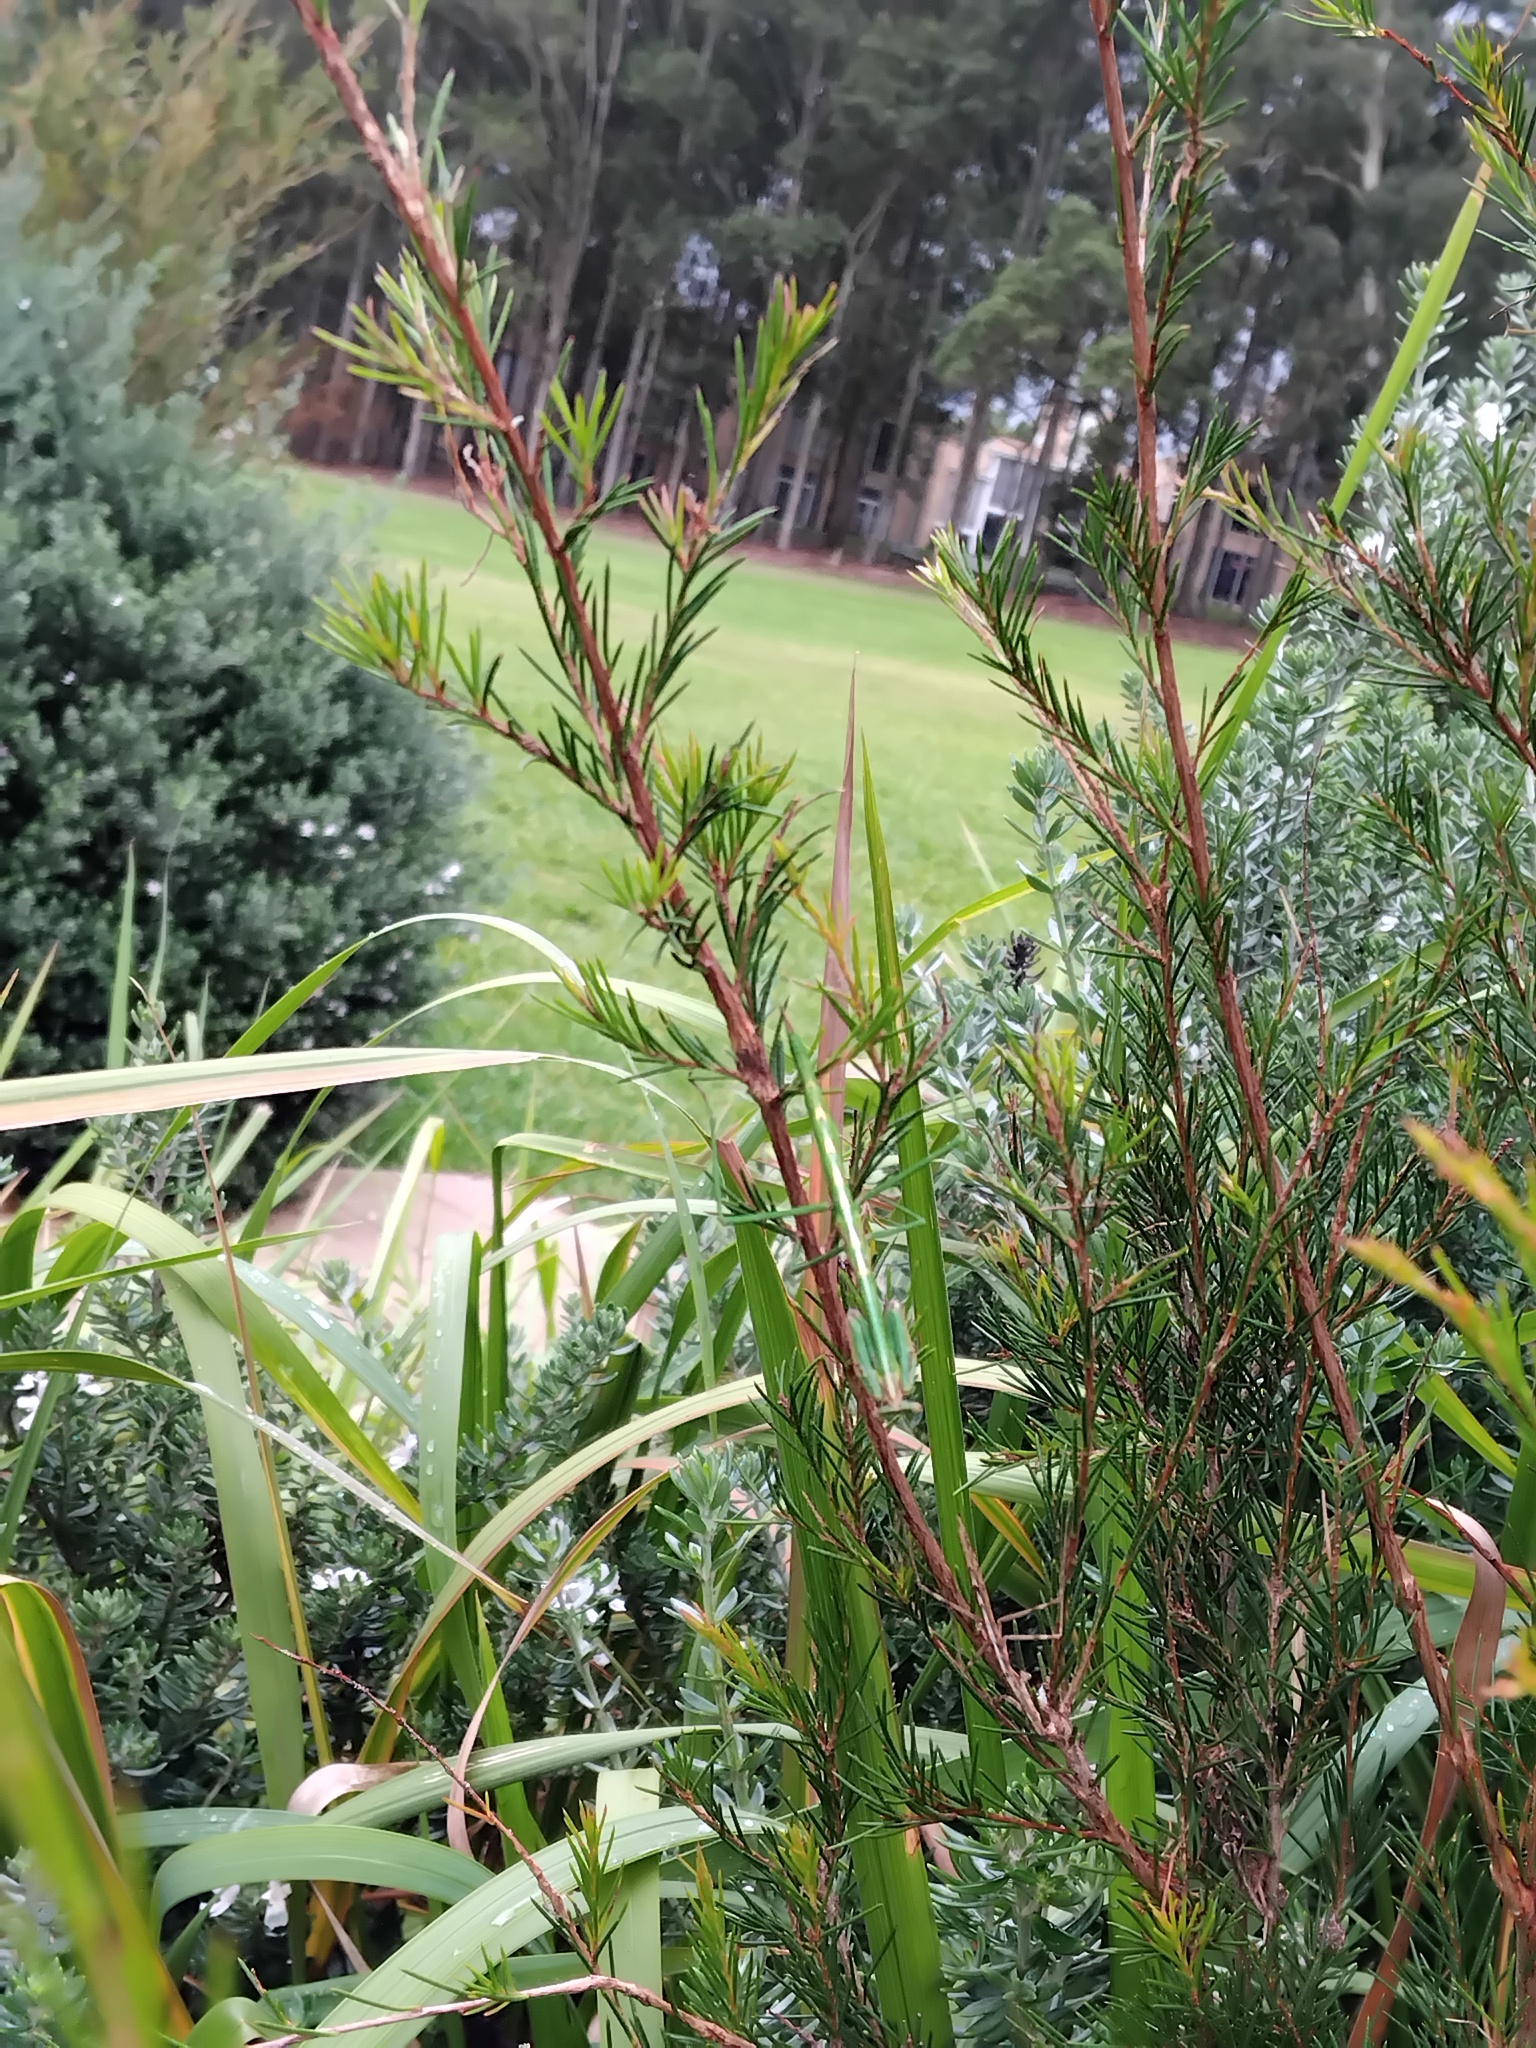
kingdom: Animalia
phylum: Arthropoda
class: Insecta
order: Mantodea
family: Mantidae
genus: Archimantis
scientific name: Archimantis latistyla
